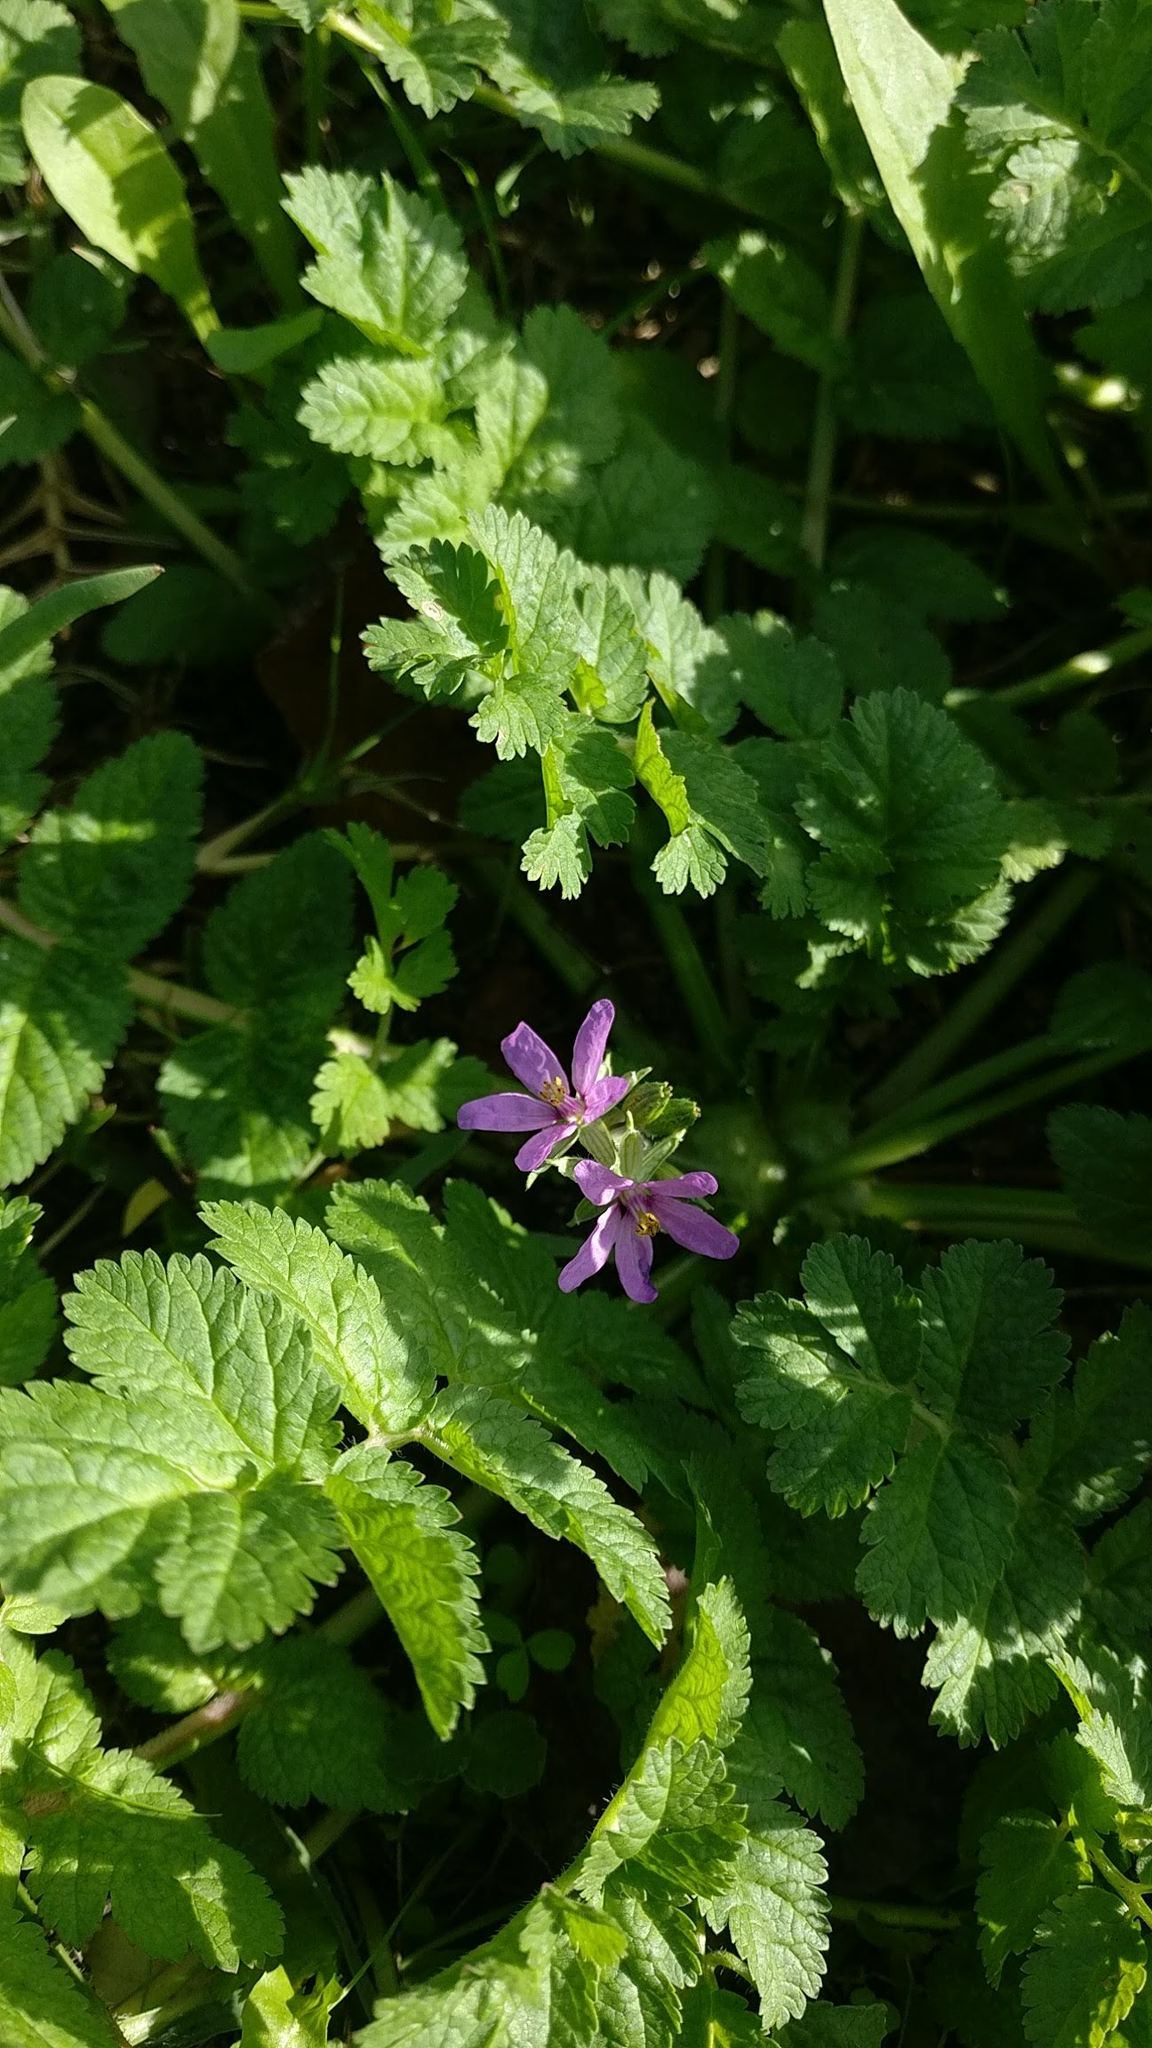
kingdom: Plantae
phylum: Tracheophyta
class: Magnoliopsida
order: Geraniales
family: Geraniaceae
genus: Erodium
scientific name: Erodium moschatum
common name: Musk stork's-bill
